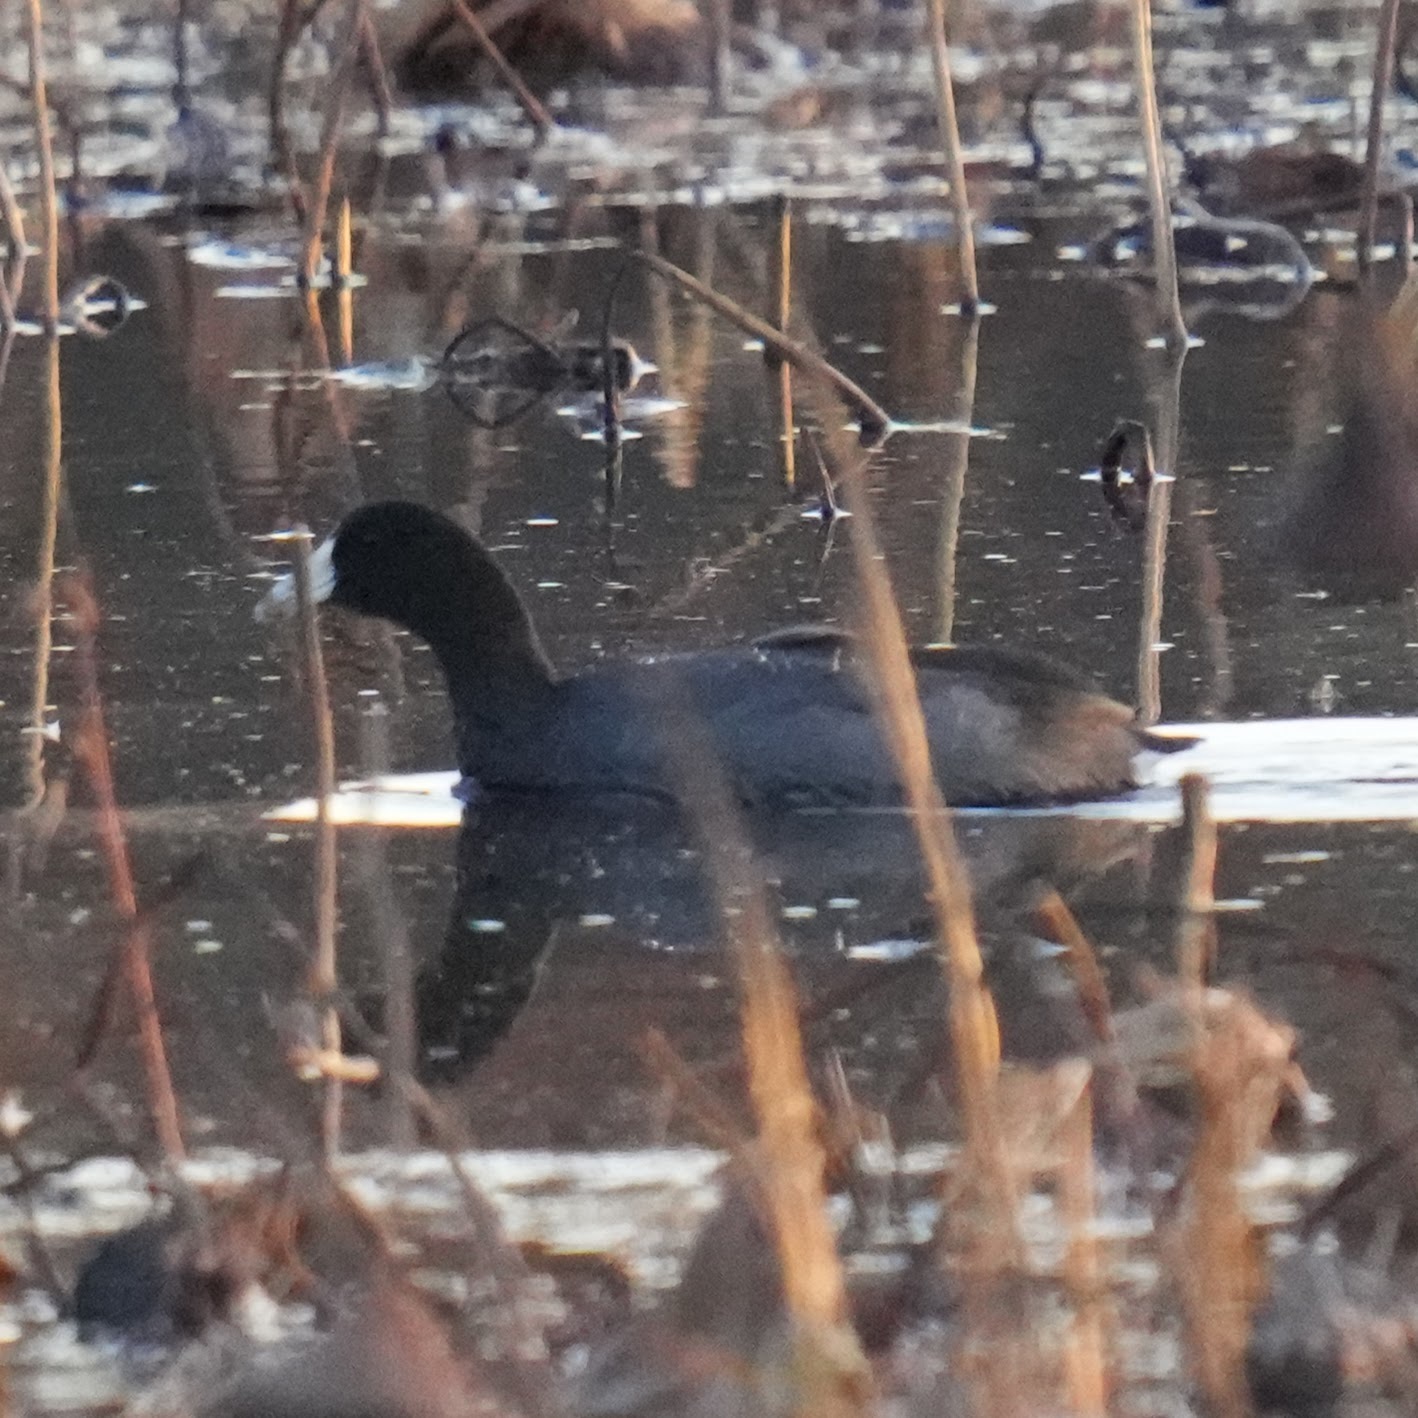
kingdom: Animalia
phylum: Chordata
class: Aves
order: Gruiformes
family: Rallidae
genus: Fulica
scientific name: Fulica americana
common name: American coot
